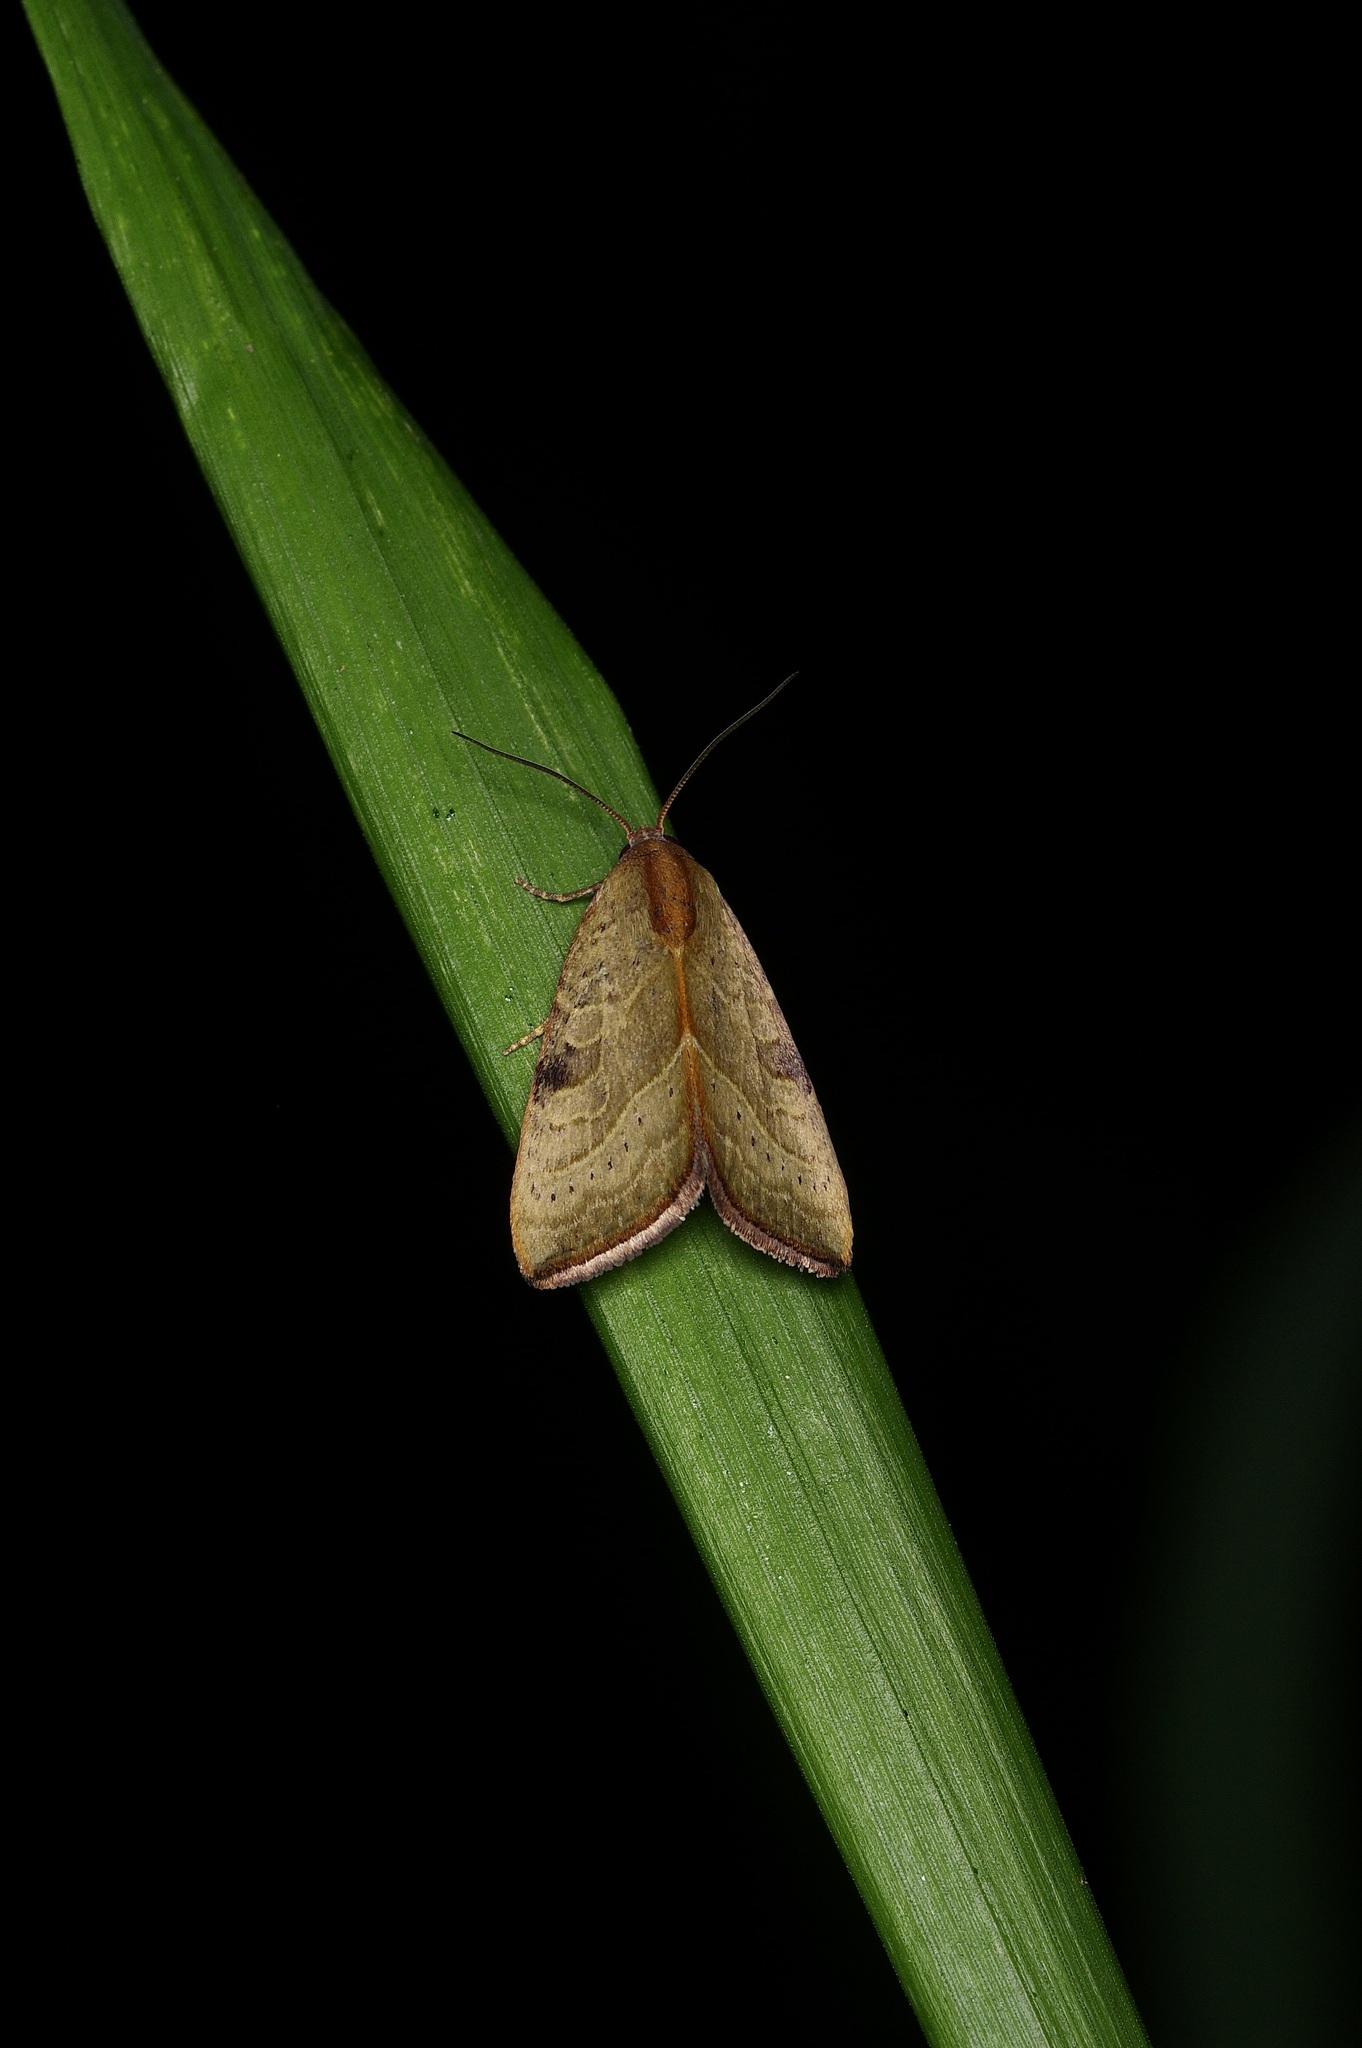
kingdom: Animalia
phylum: Arthropoda
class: Insecta
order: Lepidoptera
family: Noctuidae
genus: Galgula
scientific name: Galgula partita
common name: Wedgeling
